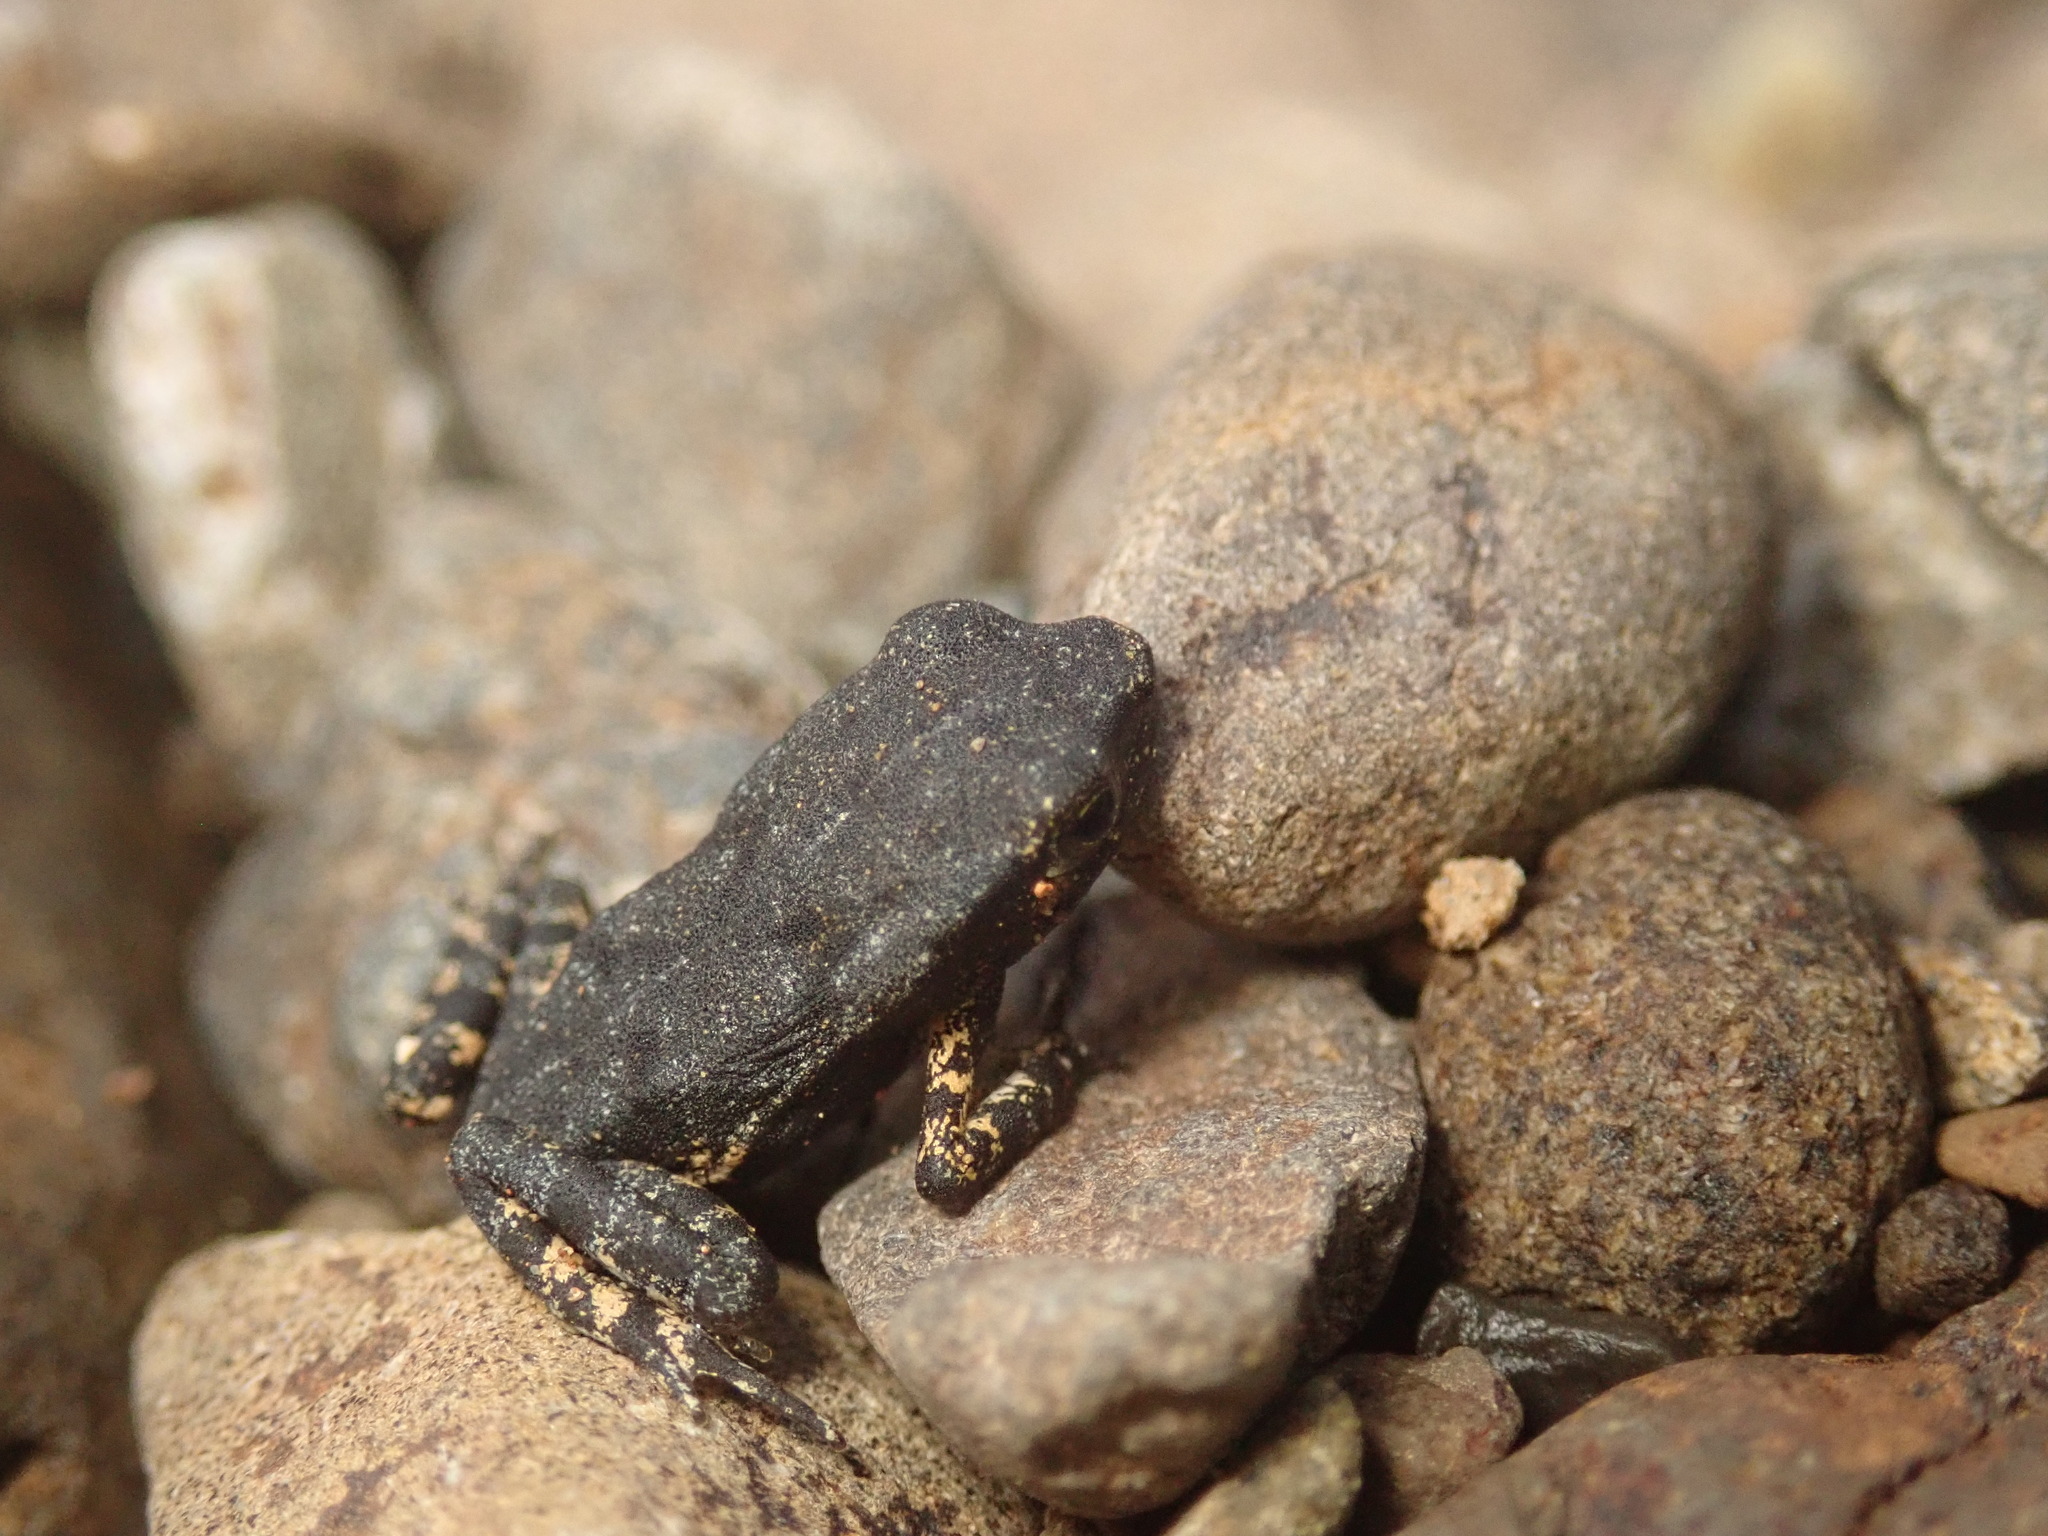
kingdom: Animalia
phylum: Chordata
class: Amphibia
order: Anura
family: Bufonidae
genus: Rhaebo
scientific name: Rhaebo haematiticus
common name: Truando toad
